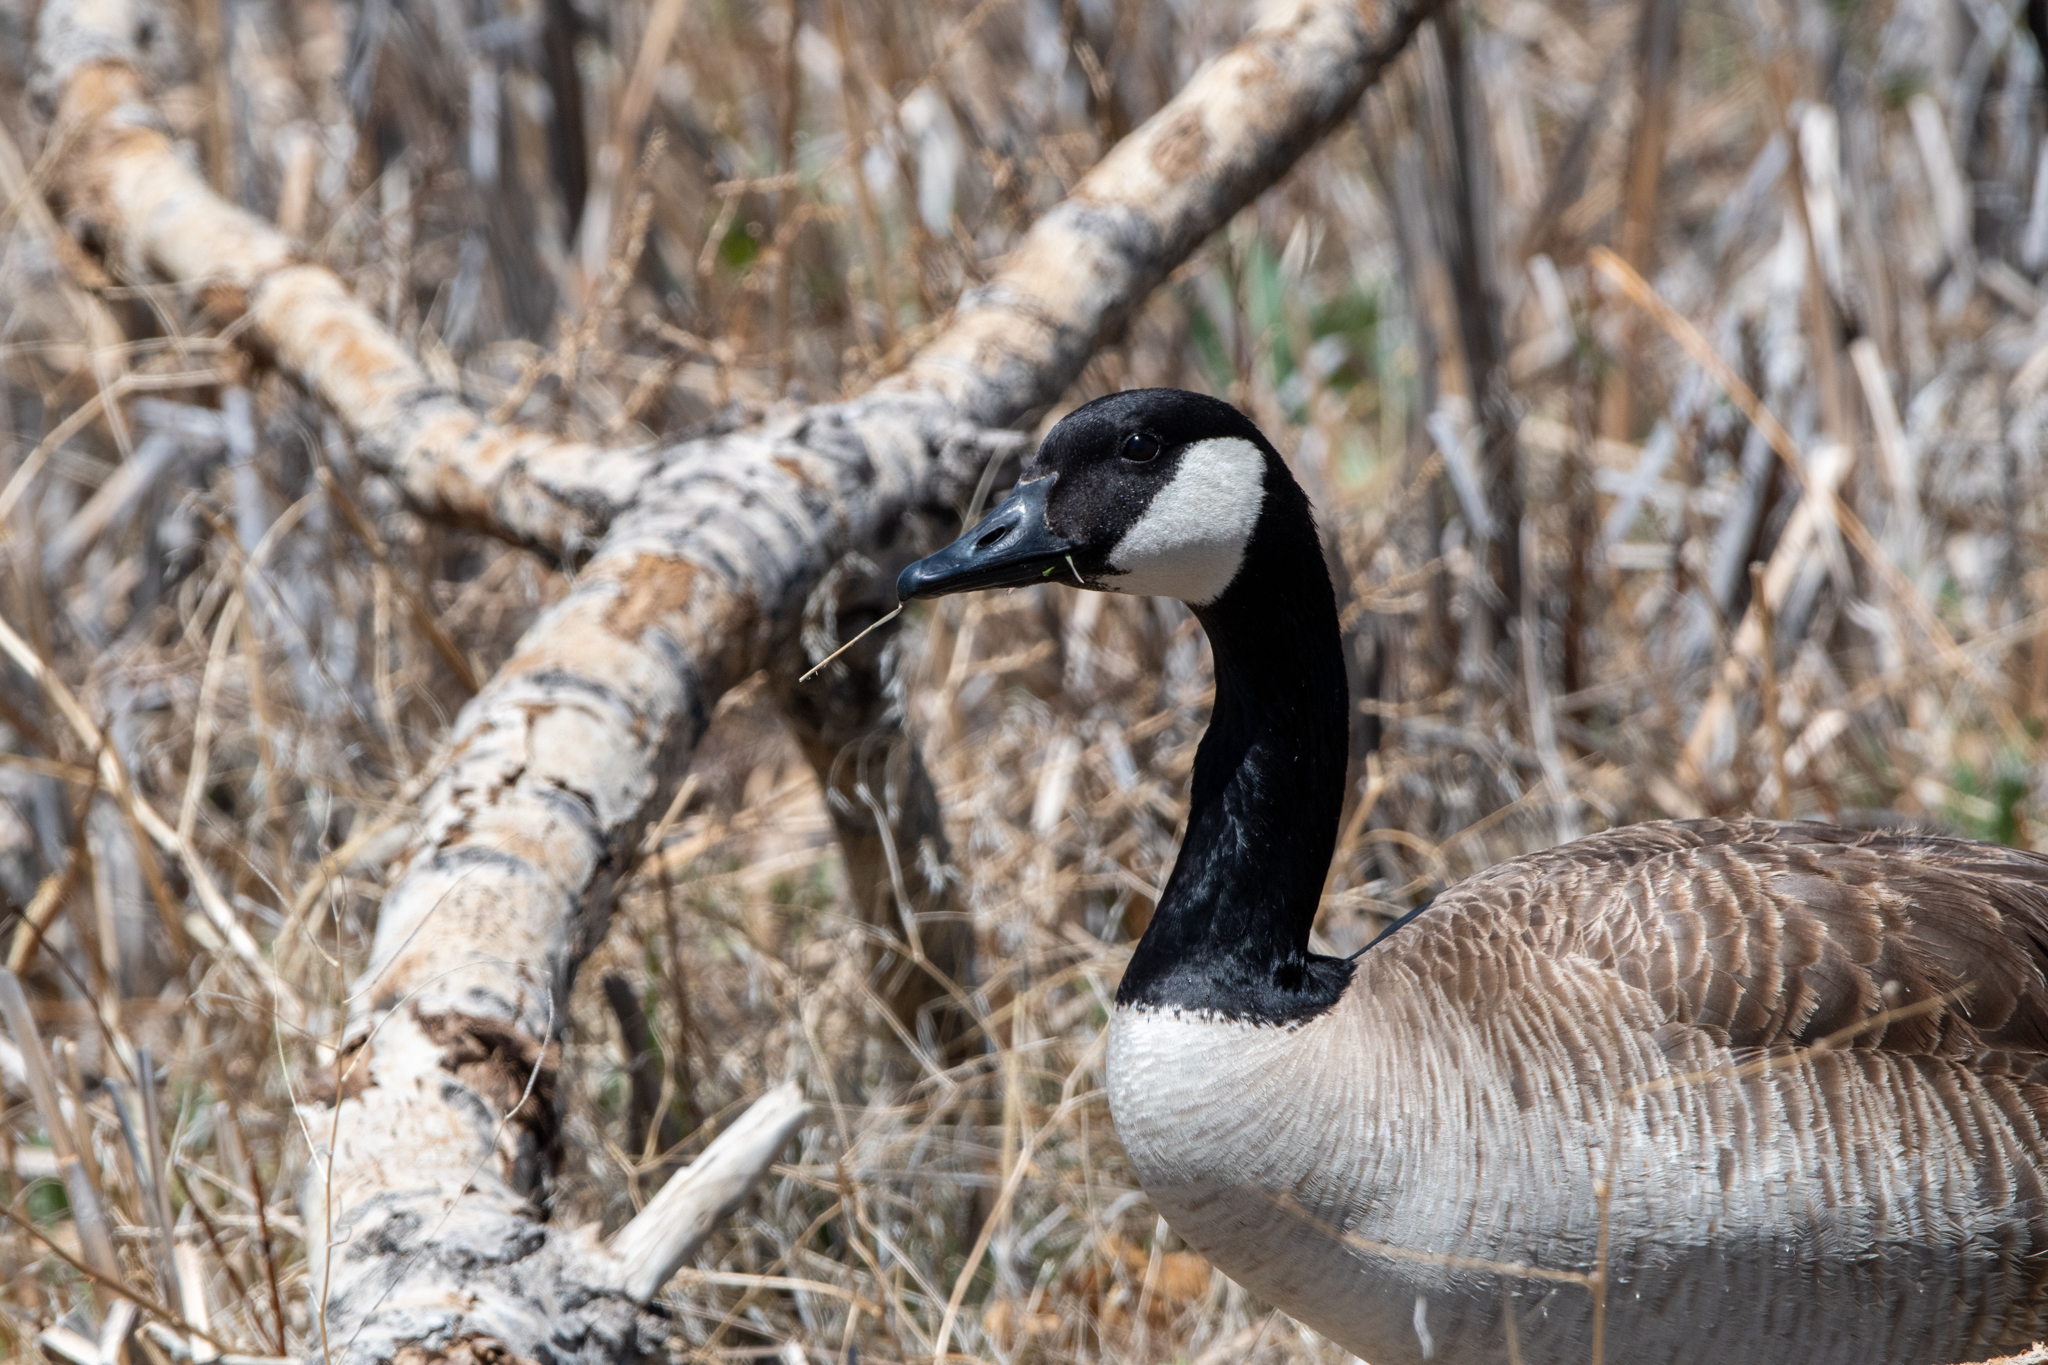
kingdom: Animalia
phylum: Chordata
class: Aves
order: Anseriformes
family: Anatidae
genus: Branta
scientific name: Branta canadensis
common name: Canada goose
